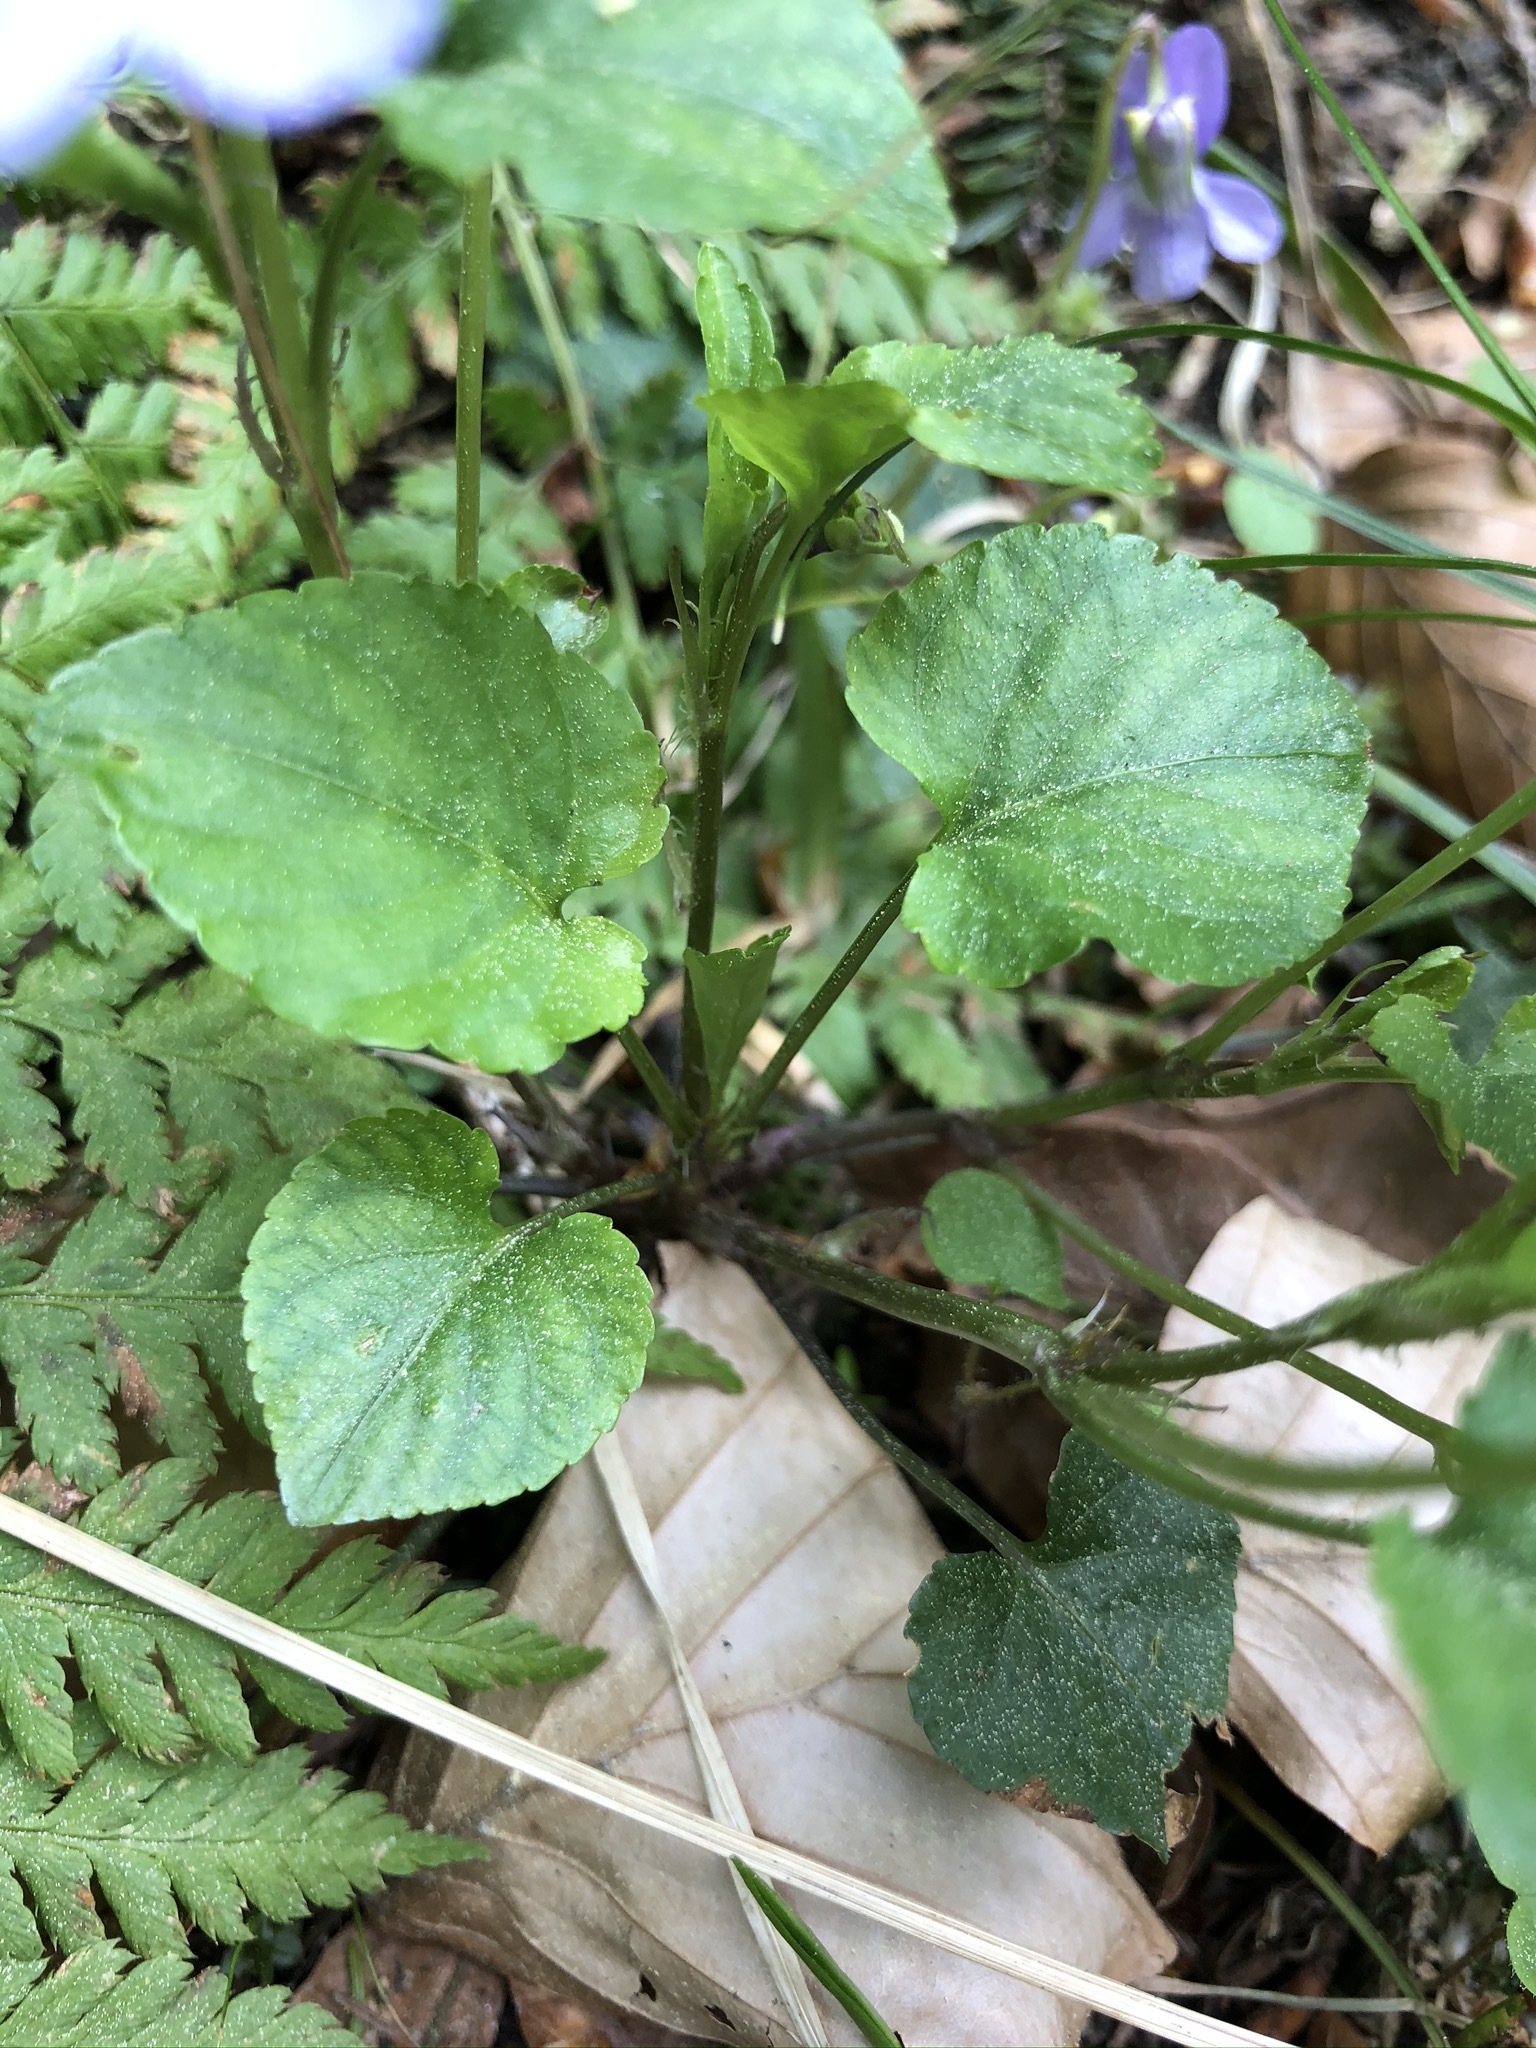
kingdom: Plantae
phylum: Tracheophyta
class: Magnoliopsida
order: Malpighiales
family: Violaceae
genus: Viola
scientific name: Viola reichenbachiana
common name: Early dog-violet
